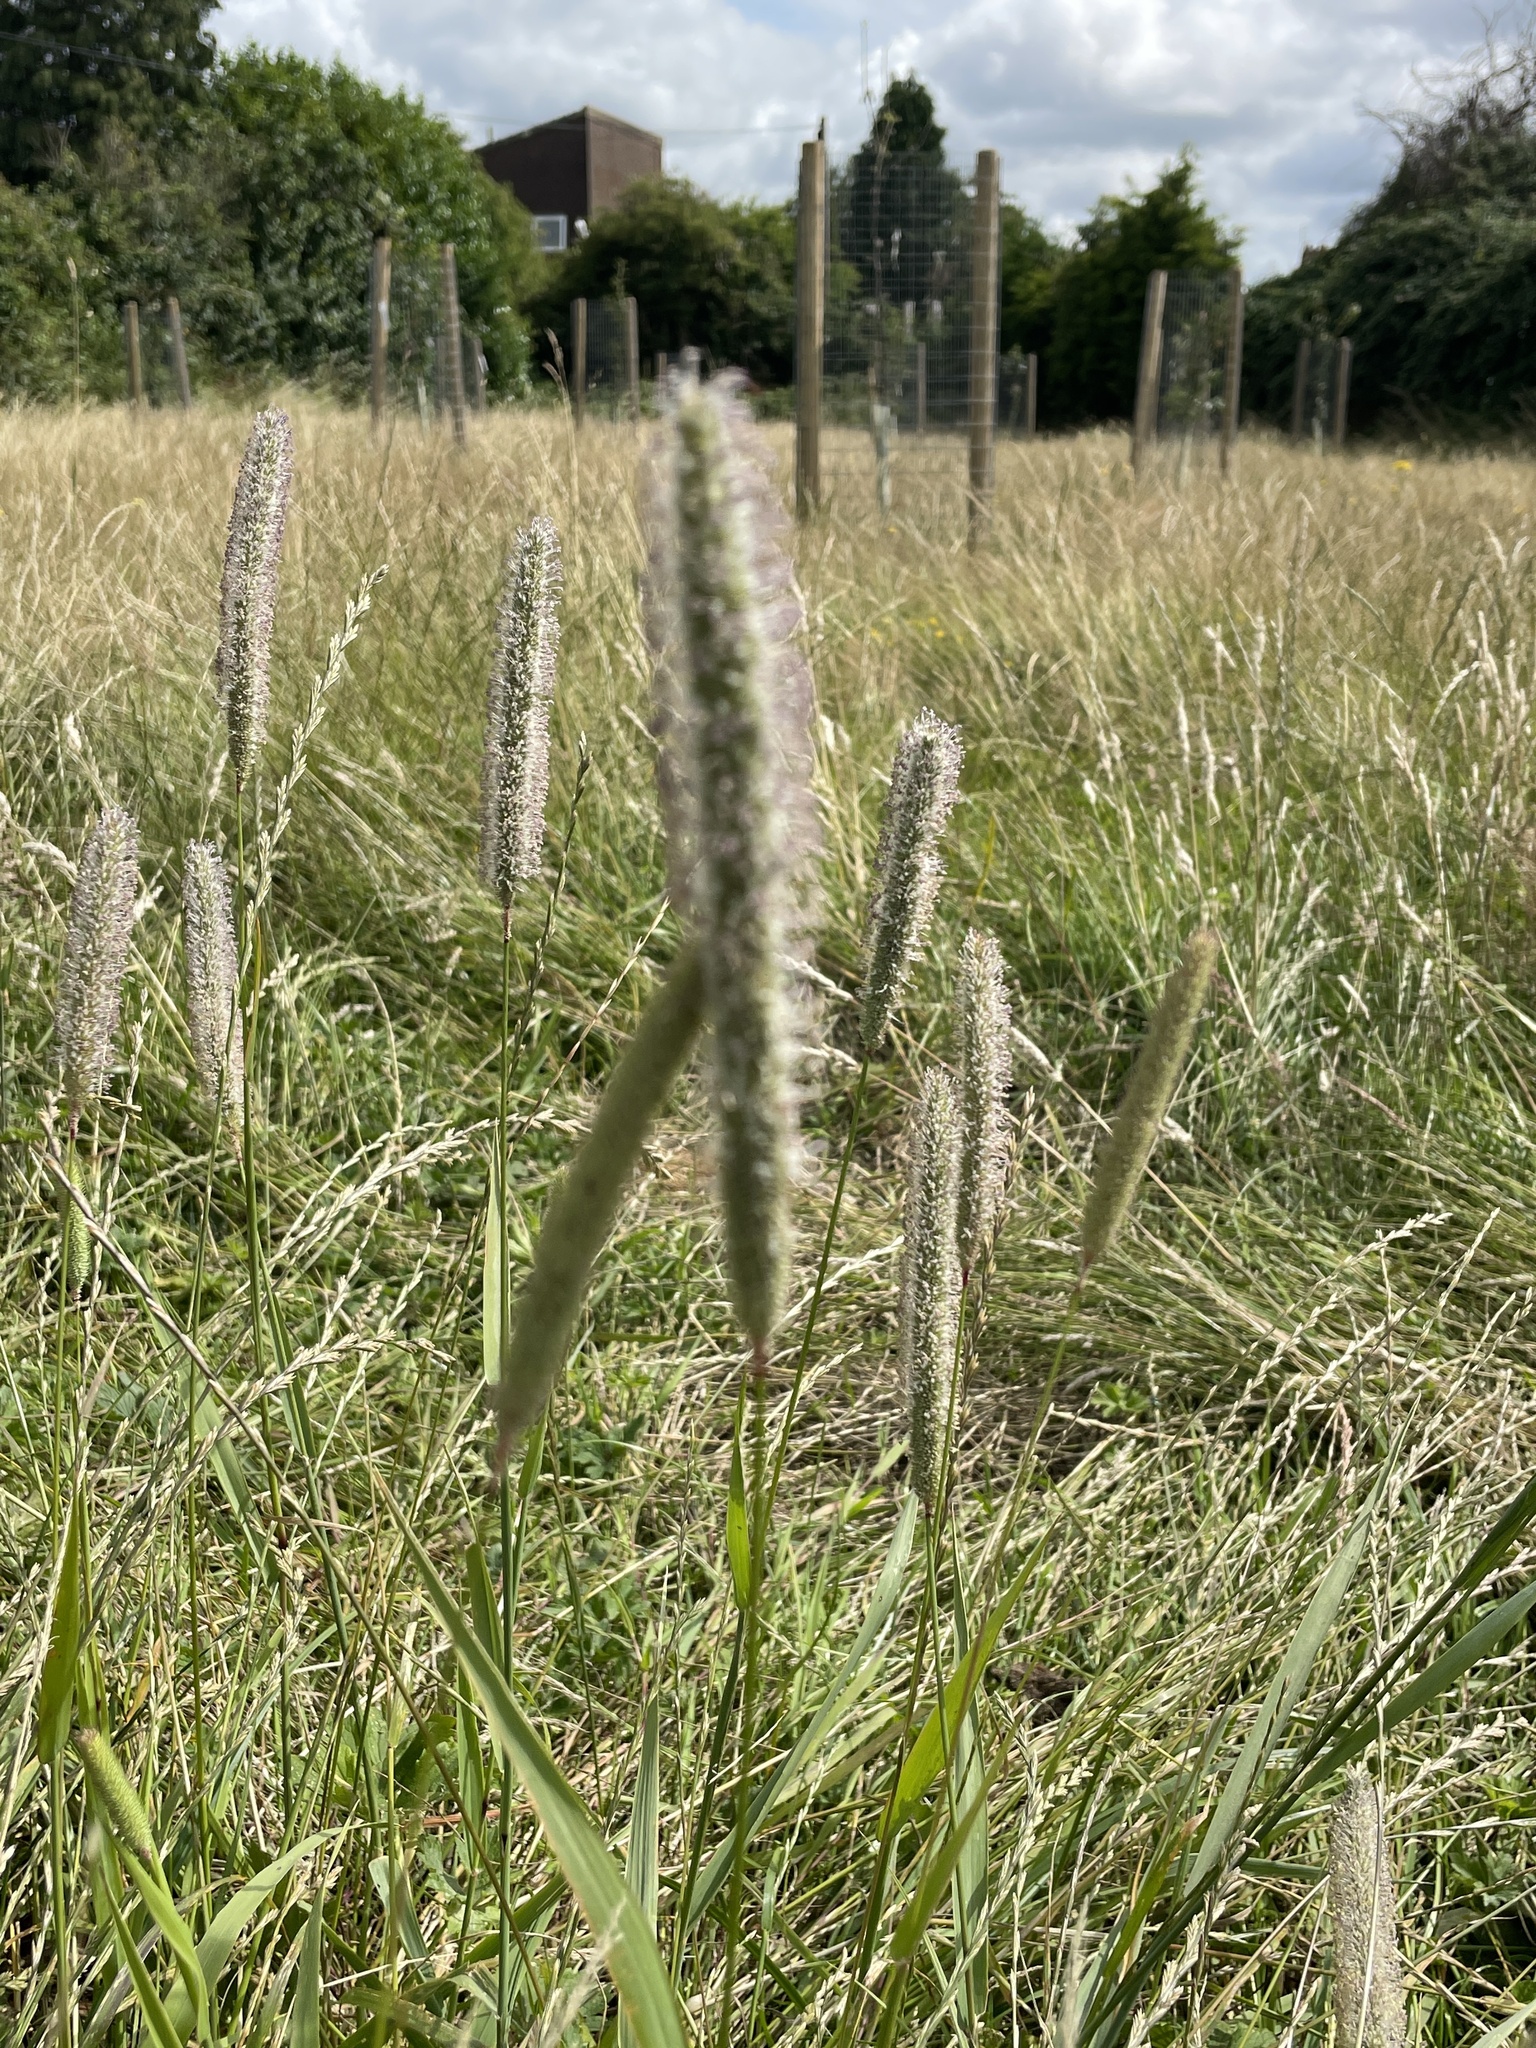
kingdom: Plantae
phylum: Tracheophyta
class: Liliopsida
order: Poales
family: Poaceae
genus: Phleum
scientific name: Phleum pratense
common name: Timothy grass
